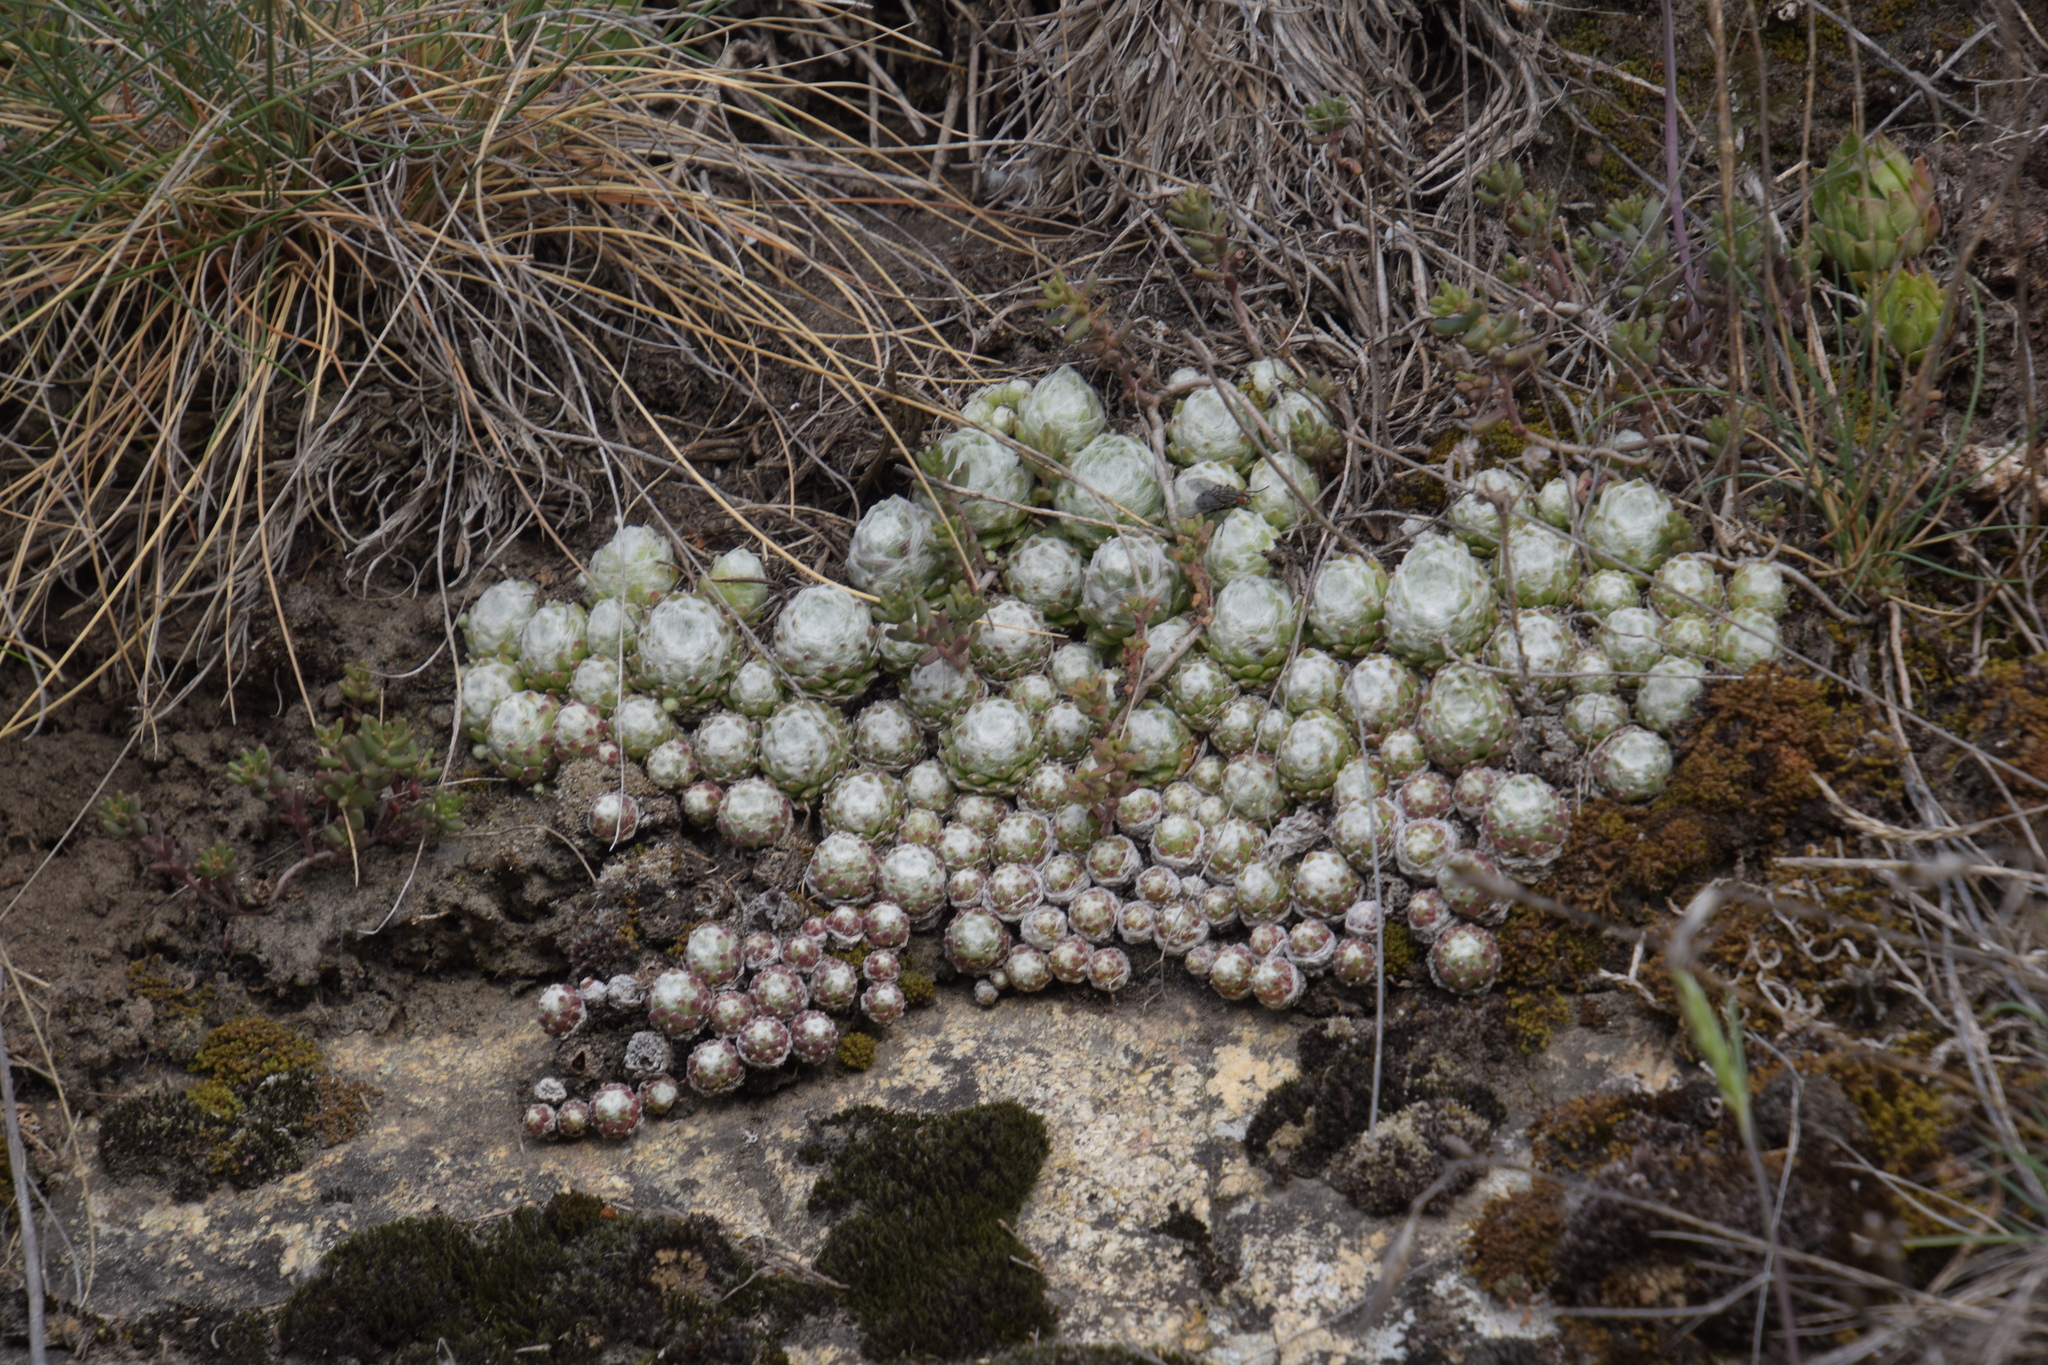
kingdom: Plantae
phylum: Tracheophyta
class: Magnoliopsida
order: Saxifragales
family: Crassulaceae
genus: Sempervivum
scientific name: Sempervivum arachnoideum
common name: Cobweb house-leek
